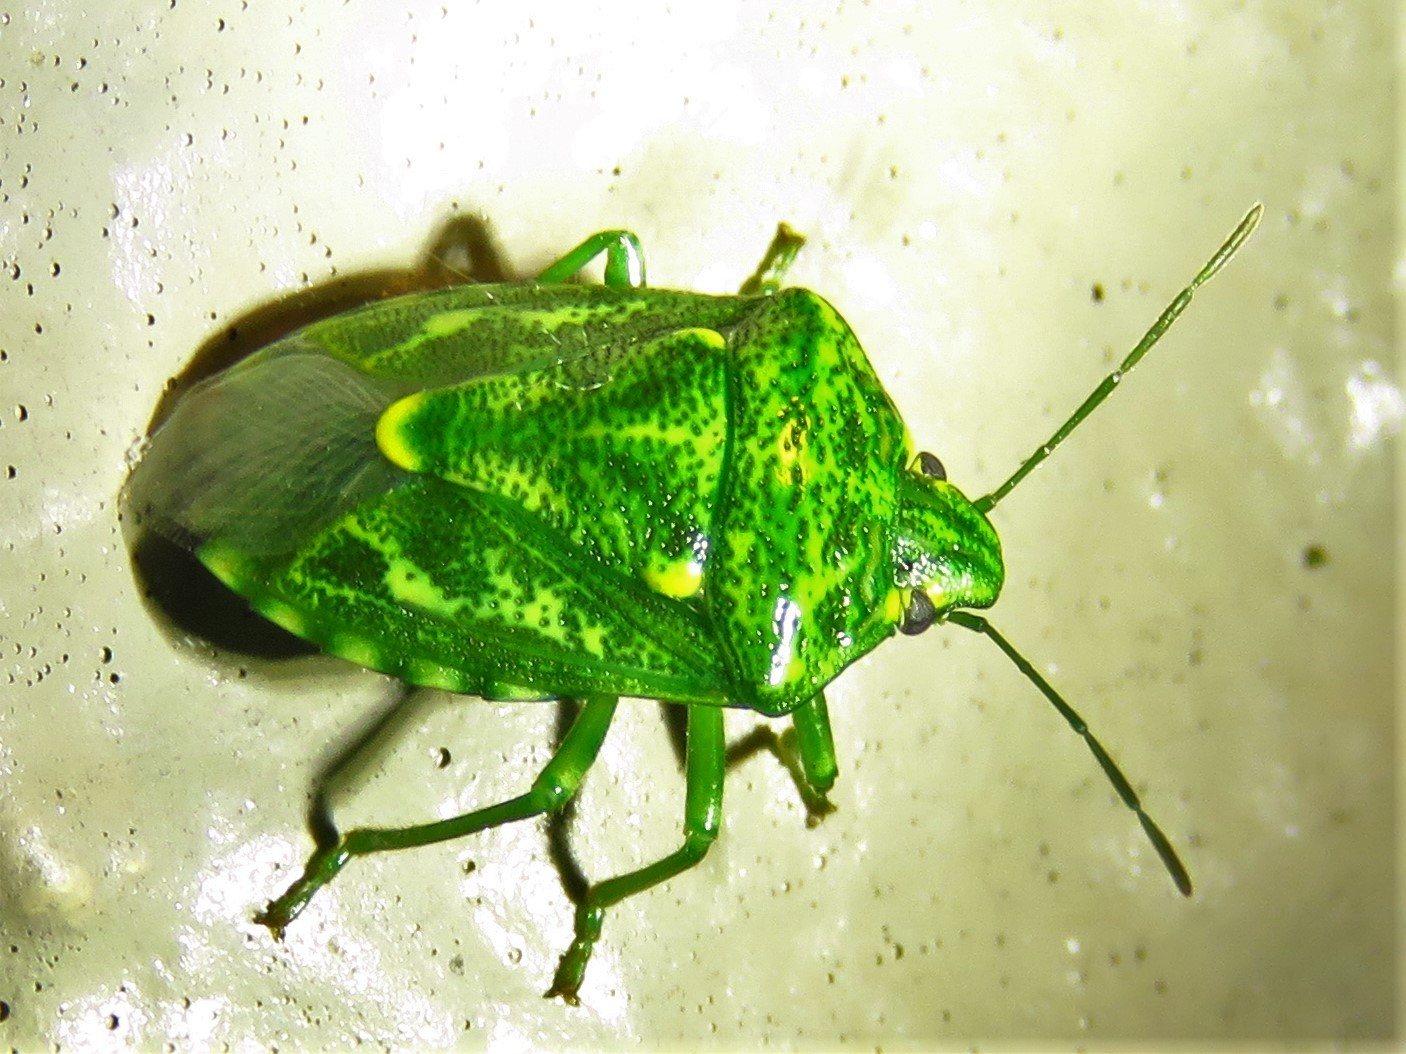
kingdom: Animalia
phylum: Arthropoda
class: Insecta
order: Hemiptera
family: Pentatomidae
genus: Banasa
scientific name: Banasa euchlora
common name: Cedar berry bug
